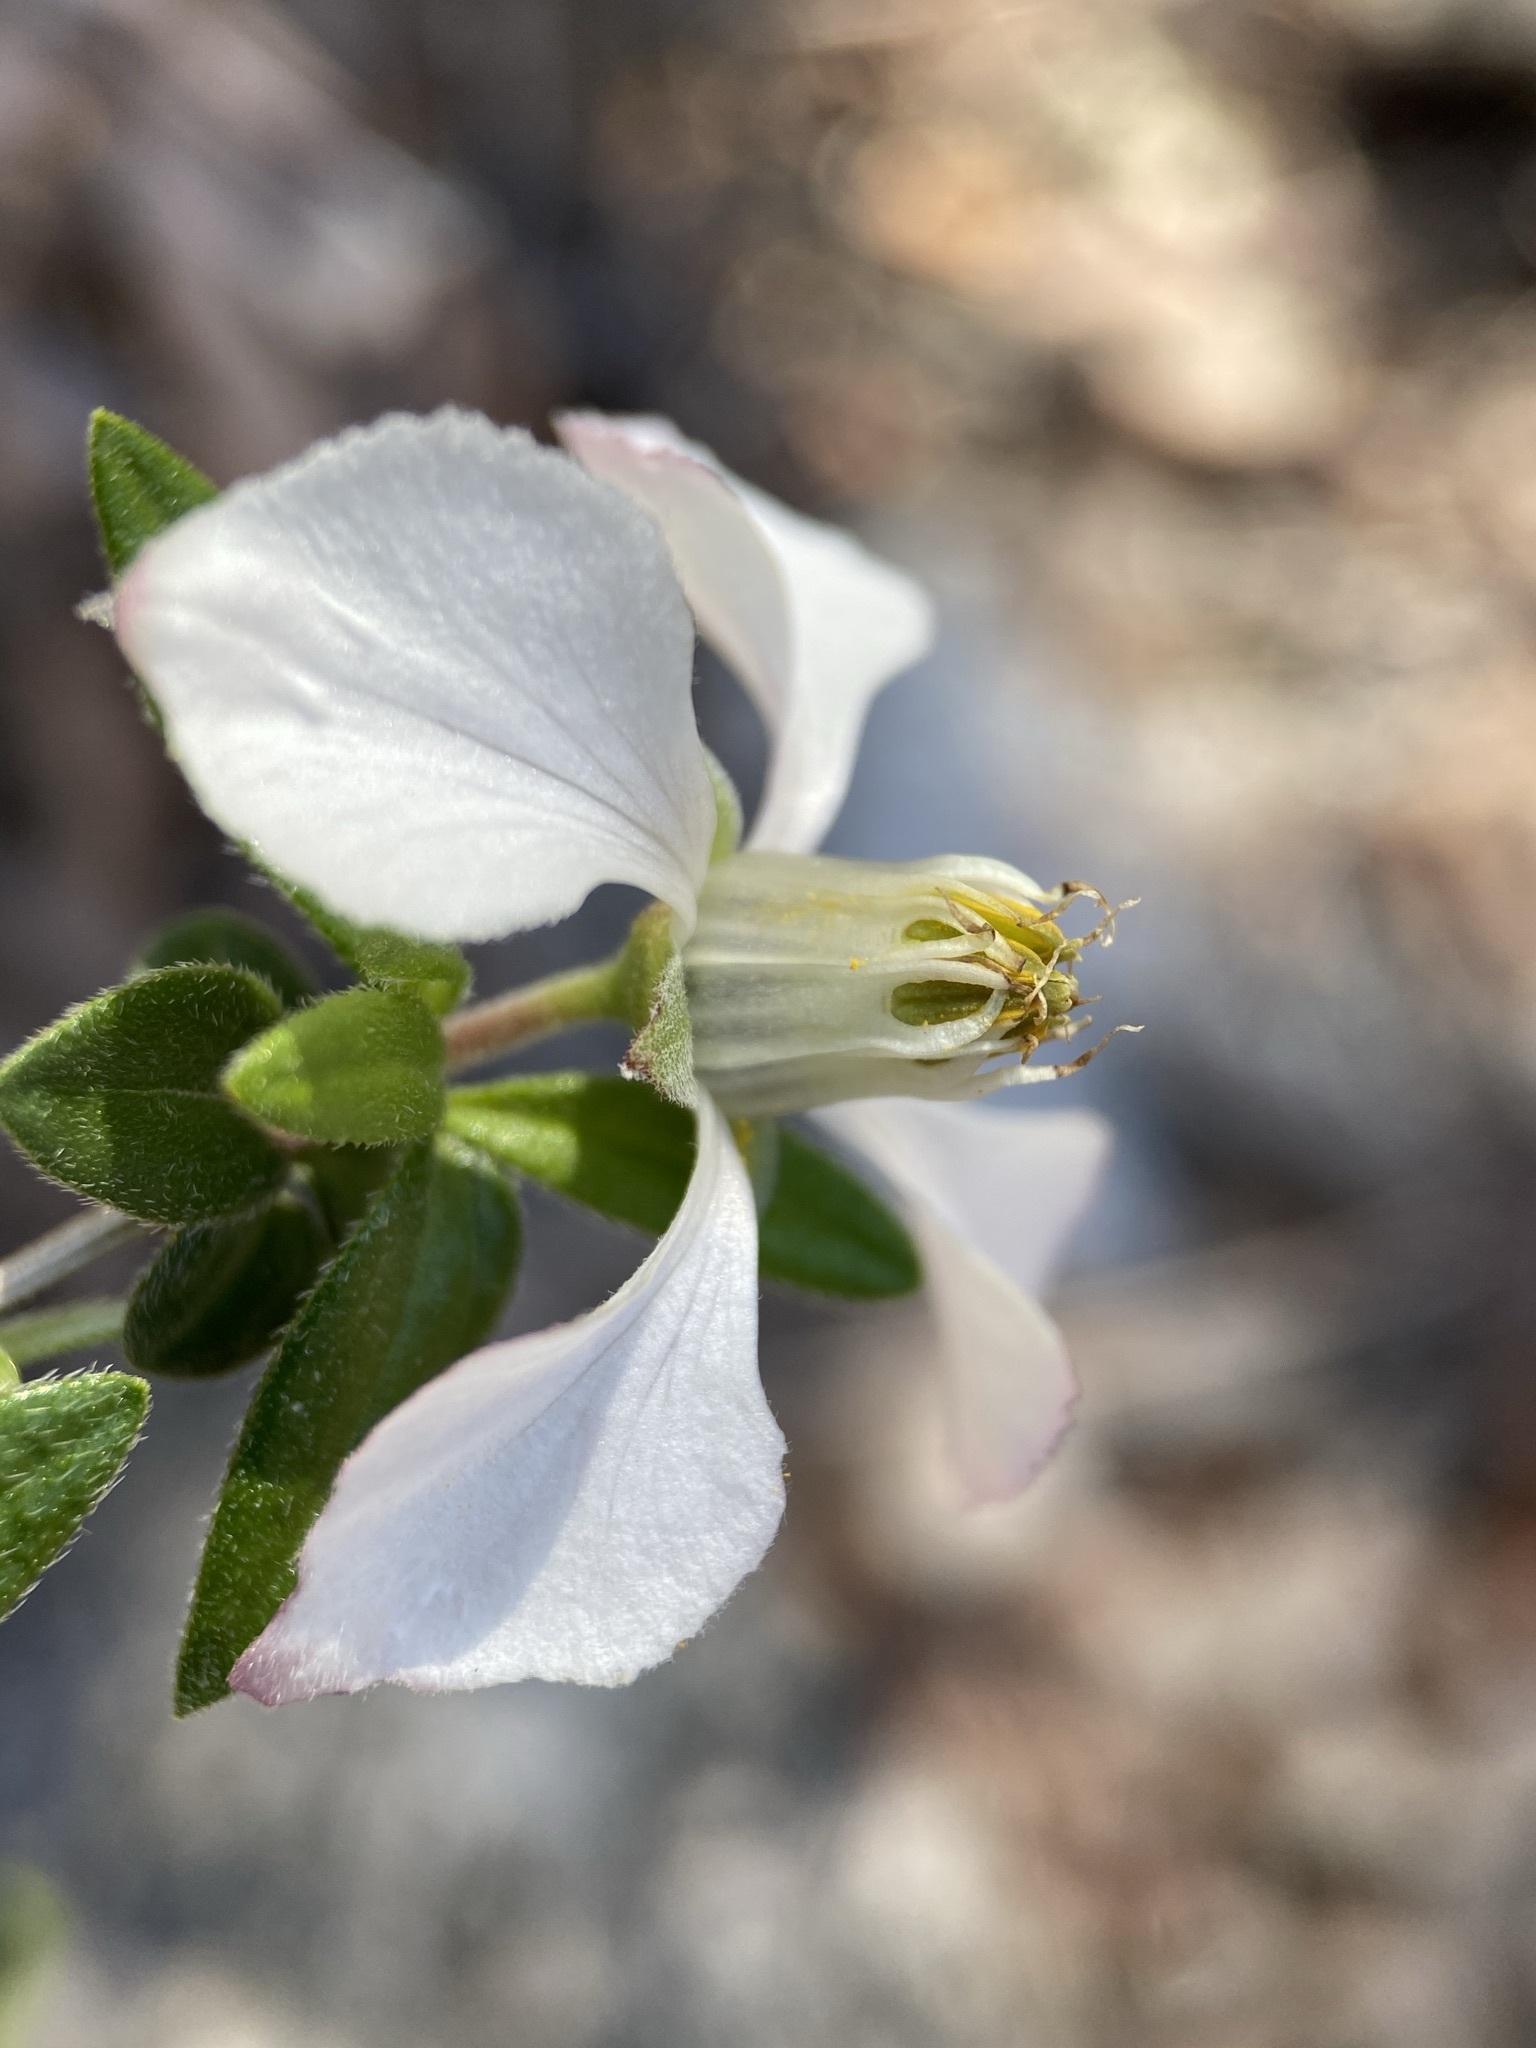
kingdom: Plantae
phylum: Tracheophyta
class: Magnoliopsida
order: Cornales
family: Hydrangeaceae
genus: Fendlera
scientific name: Fendlera rupicola
